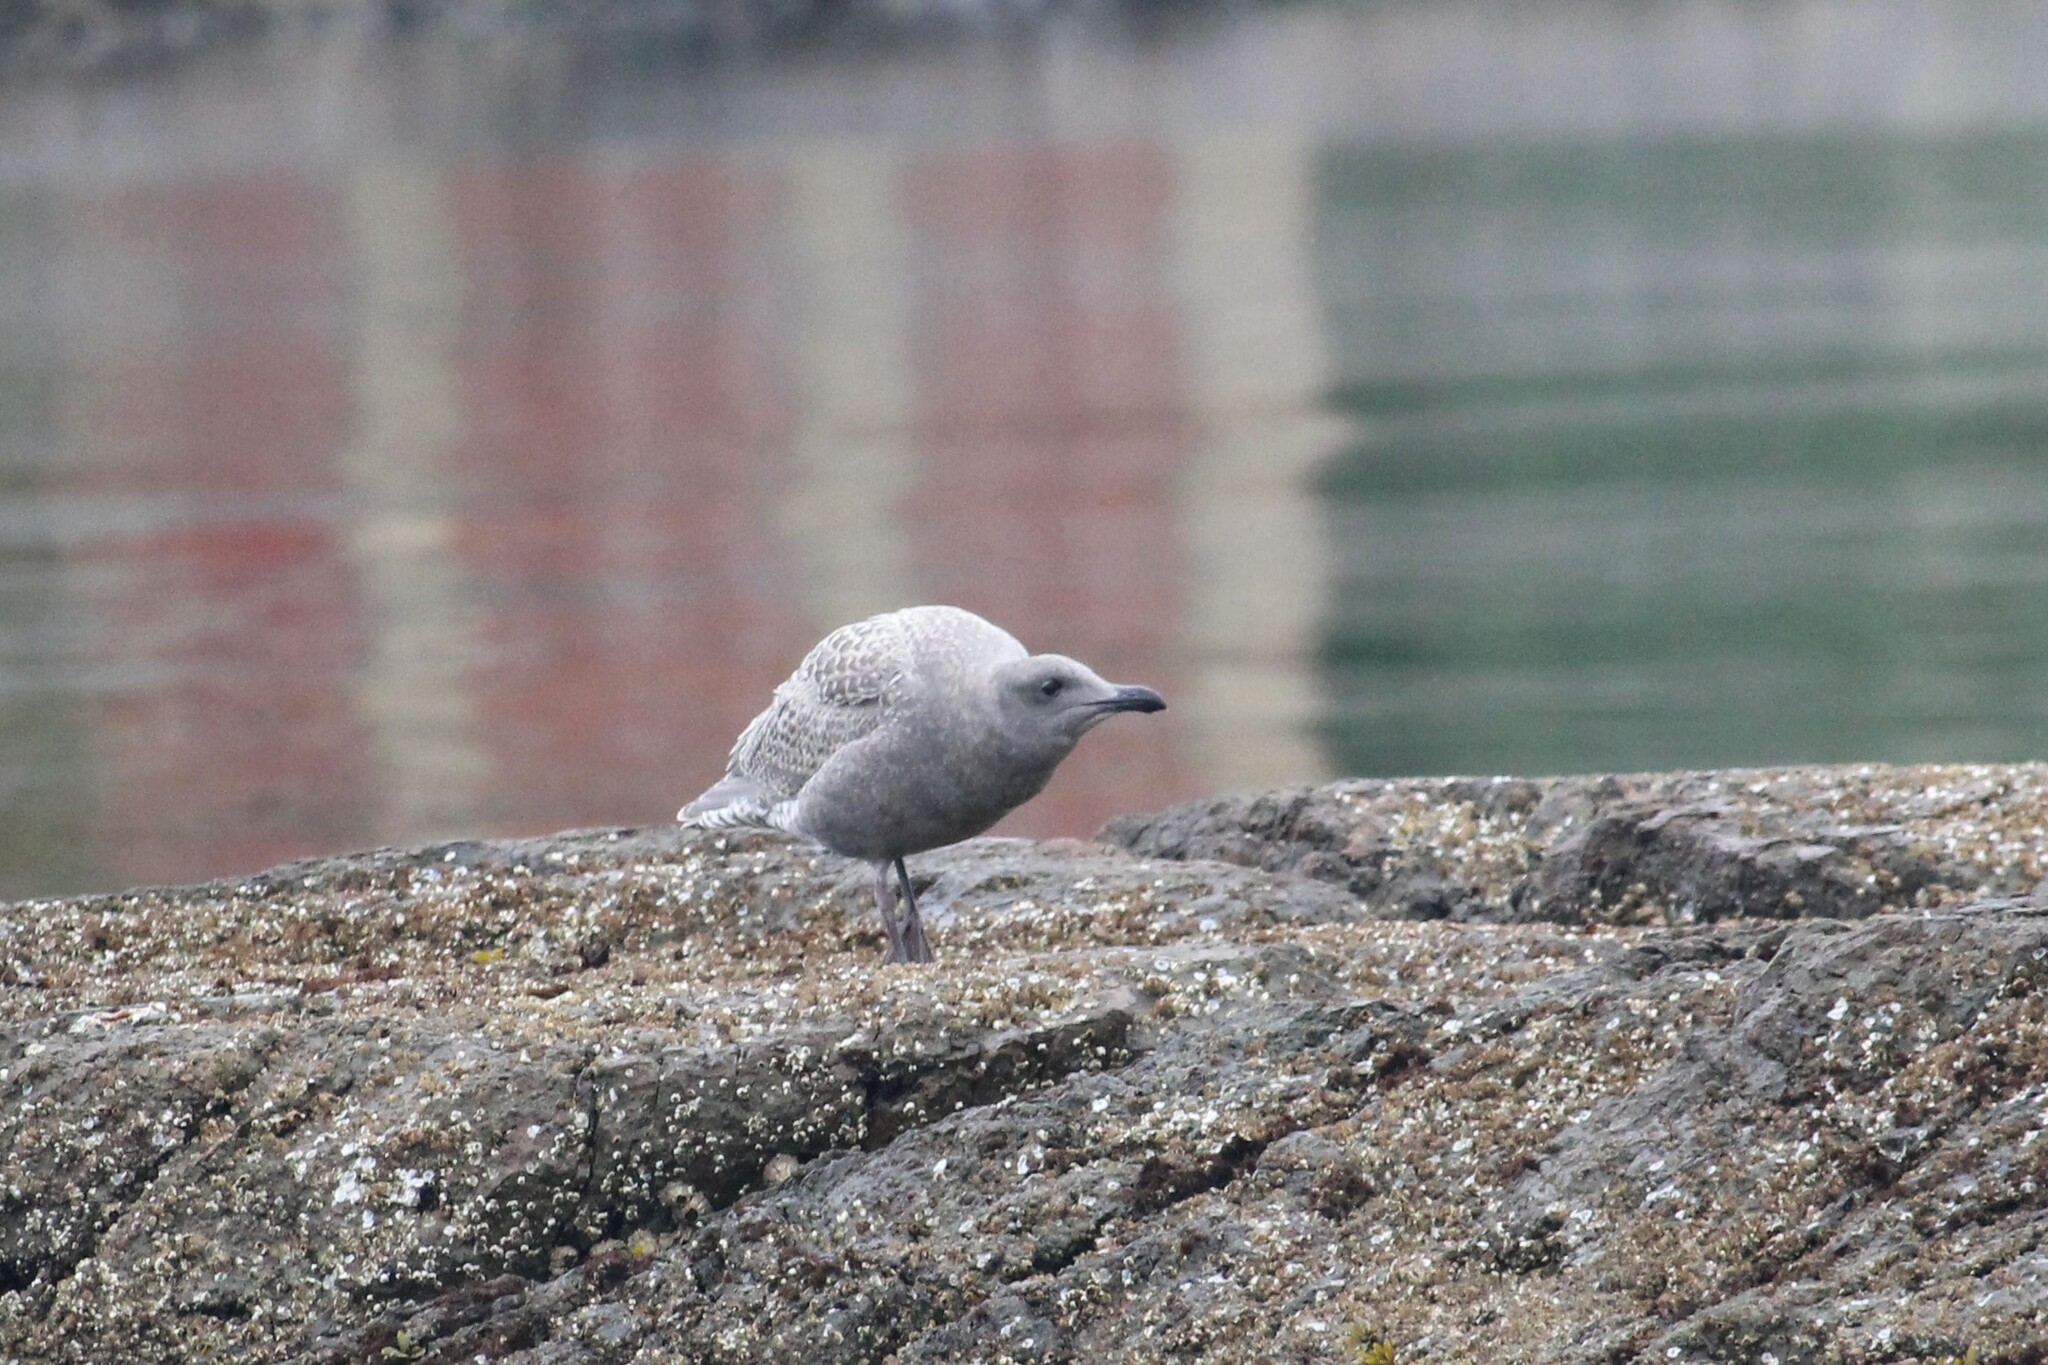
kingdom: Animalia
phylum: Chordata
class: Aves
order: Charadriiformes
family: Laridae
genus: Larus
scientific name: Larus glaucescens
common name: Glaucous-winged gull
